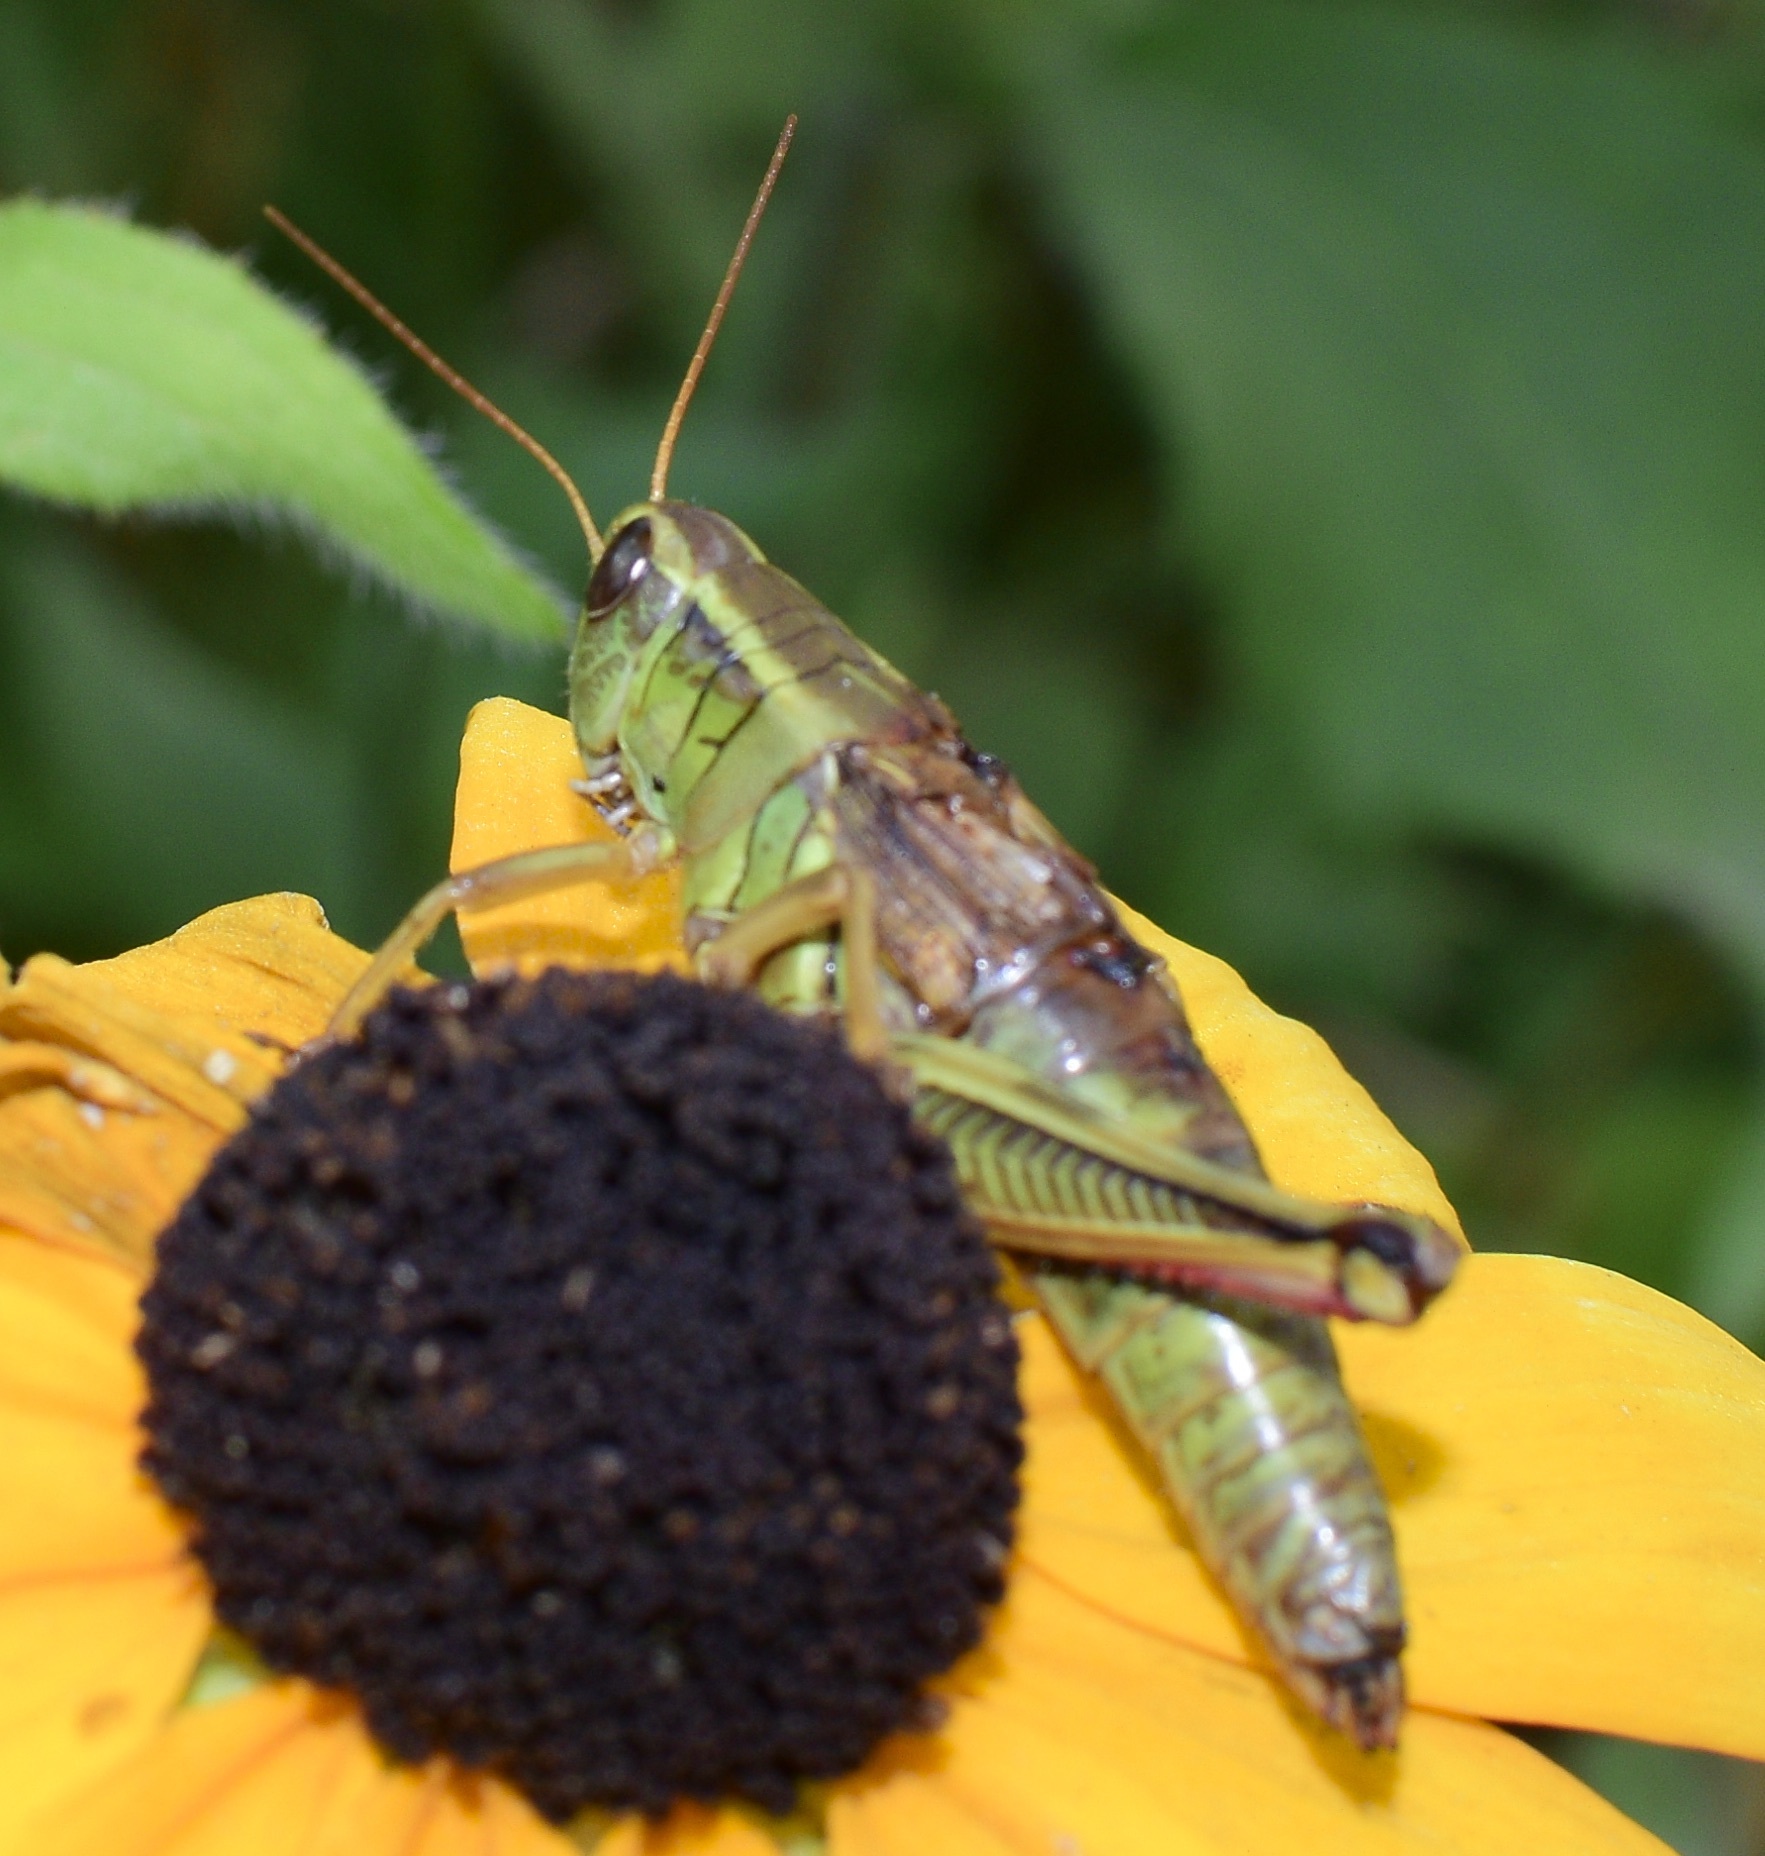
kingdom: Animalia
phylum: Arthropoda
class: Insecta
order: Orthoptera
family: Acrididae
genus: Melanoplus
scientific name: Melanoplus bivittatus
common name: Two-striped grasshopper
